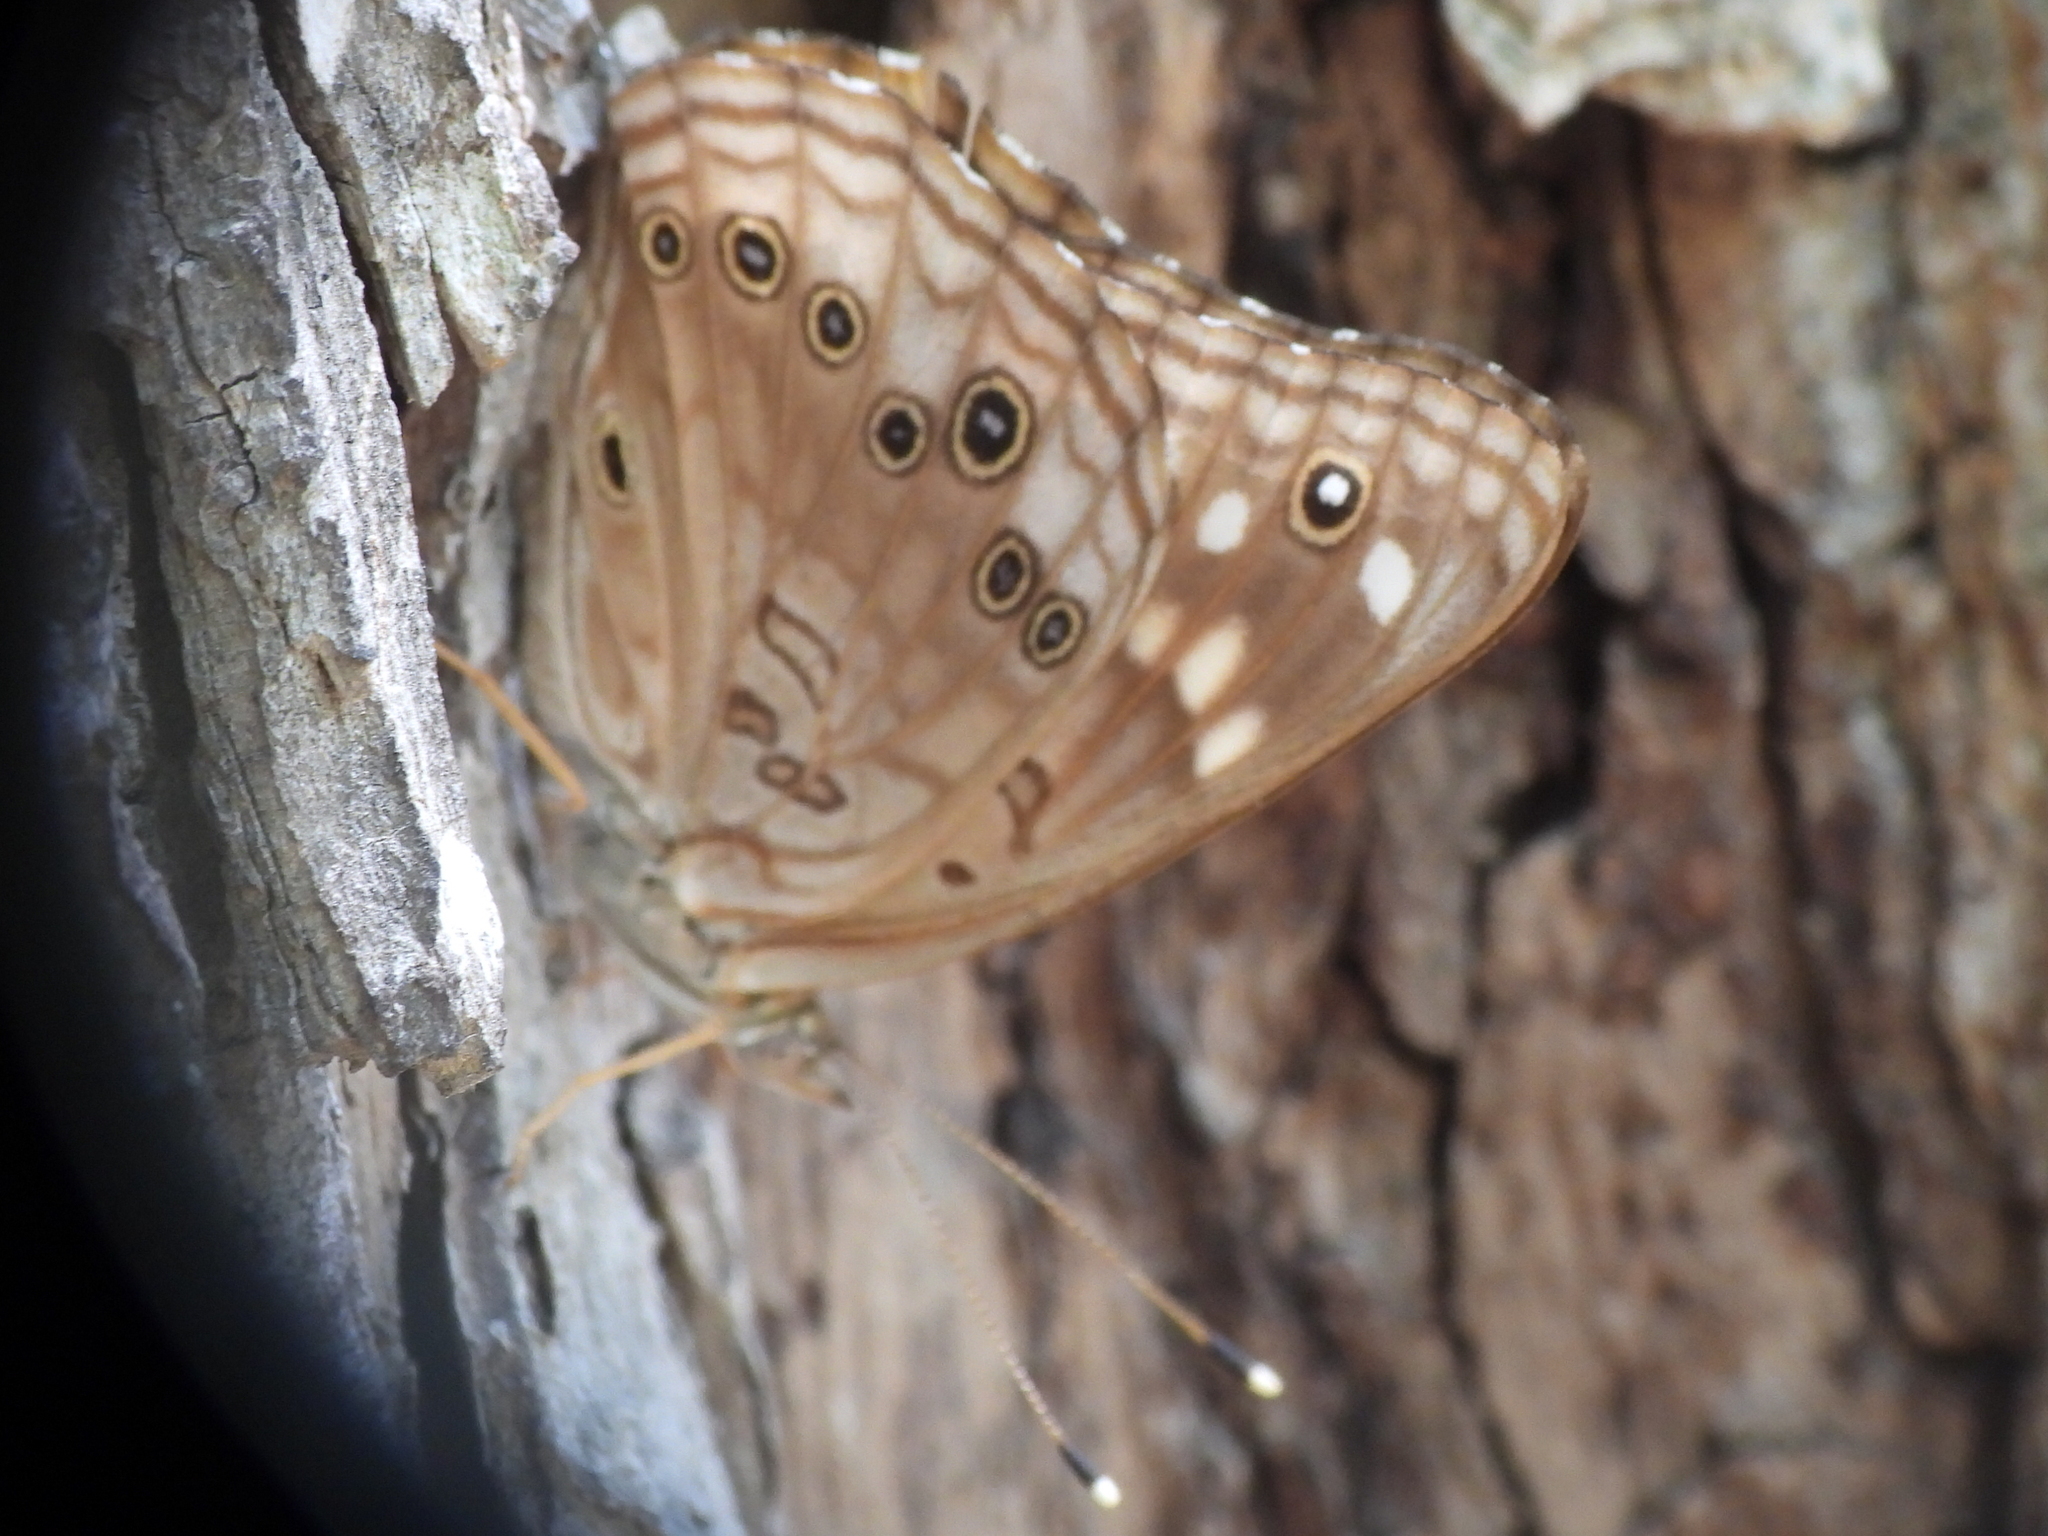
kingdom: Animalia
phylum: Arthropoda
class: Insecta
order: Lepidoptera
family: Nymphalidae
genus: Asterocampa
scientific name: Asterocampa celtis
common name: Hackberry emperor
